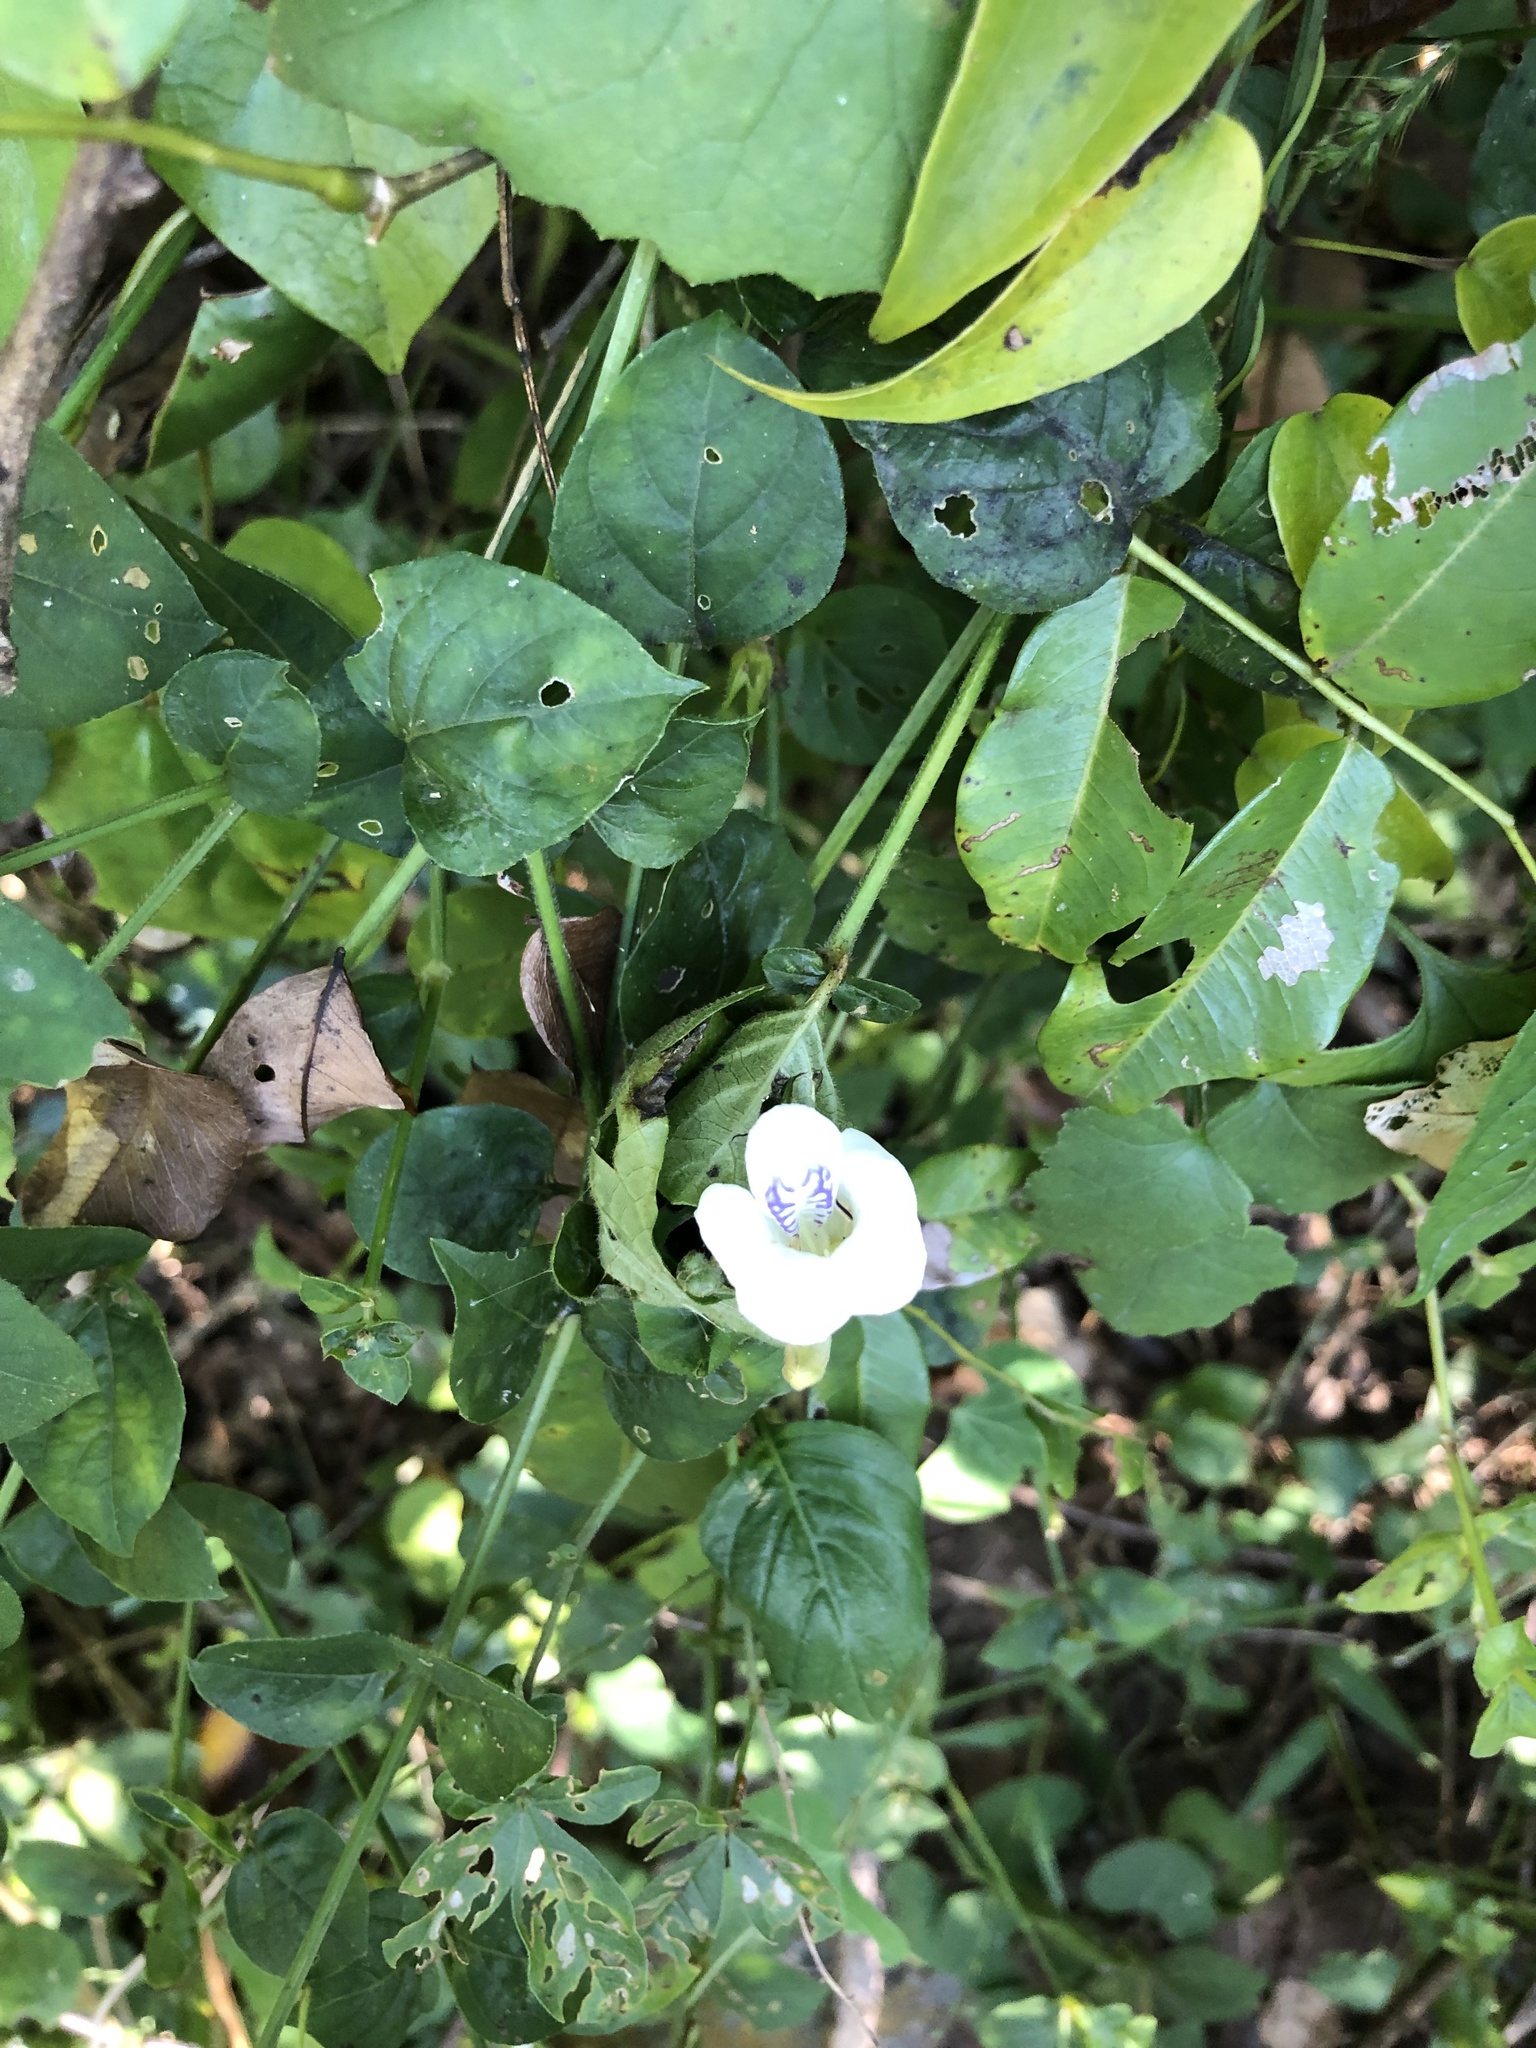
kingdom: Plantae
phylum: Tracheophyta
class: Magnoliopsida
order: Lamiales
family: Acanthaceae
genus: Asystasia
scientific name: Asystasia intrusa
